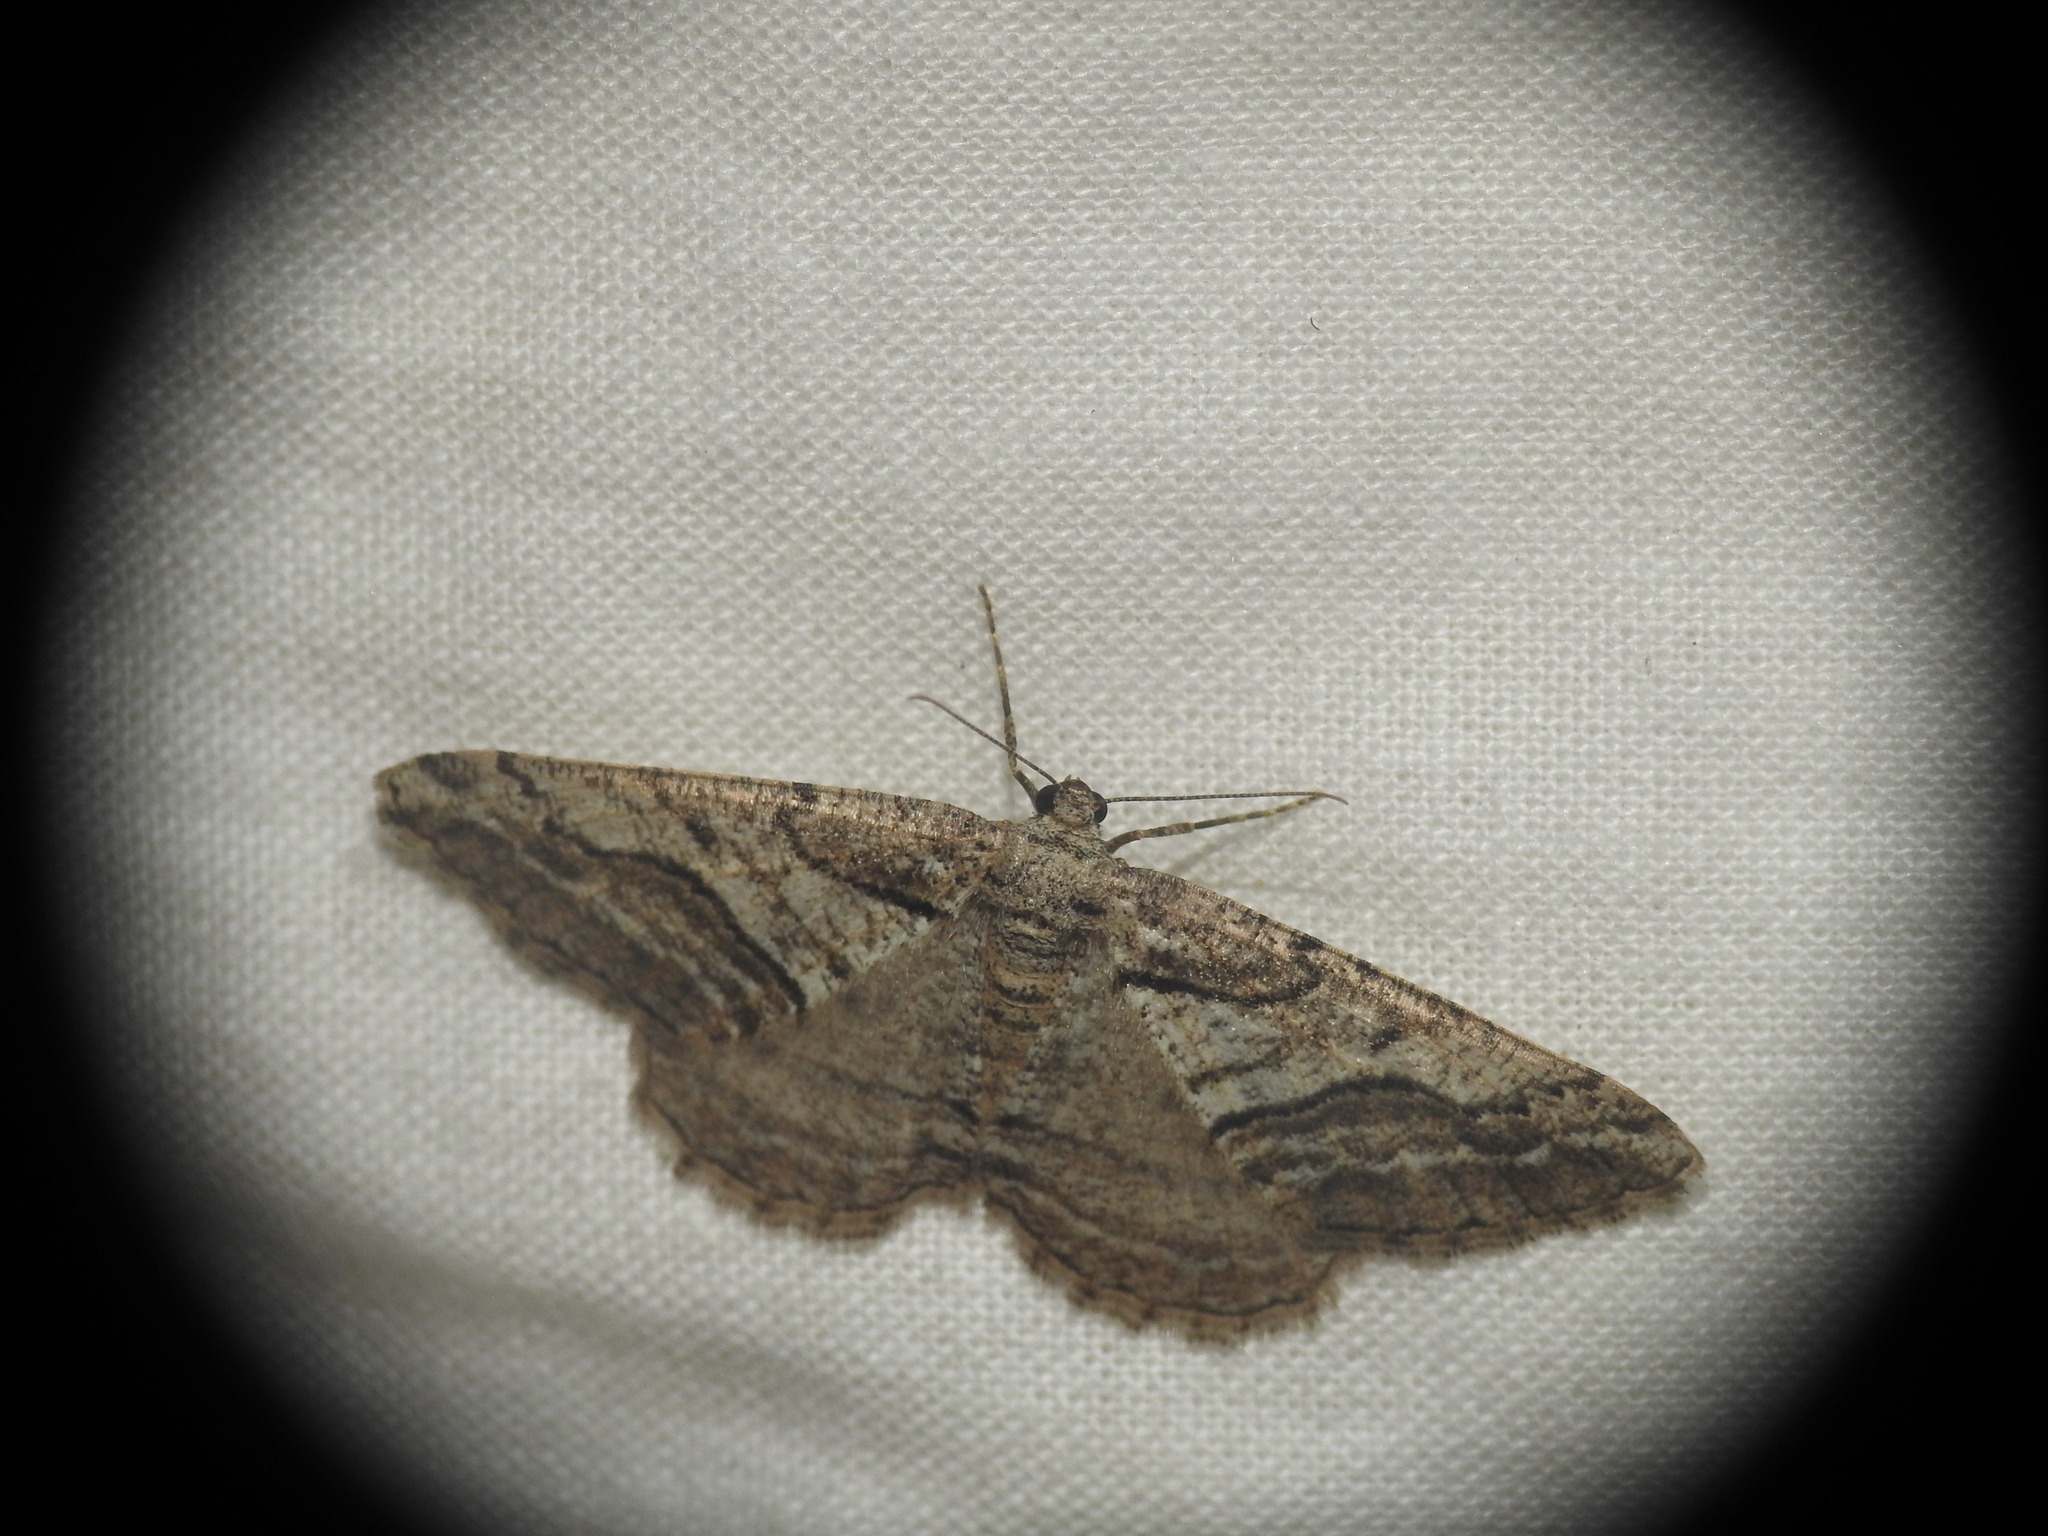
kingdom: Animalia
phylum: Arthropoda
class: Insecta
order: Lepidoptera
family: Geometridae
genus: Calamodes
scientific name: Calamodes occitanaria
